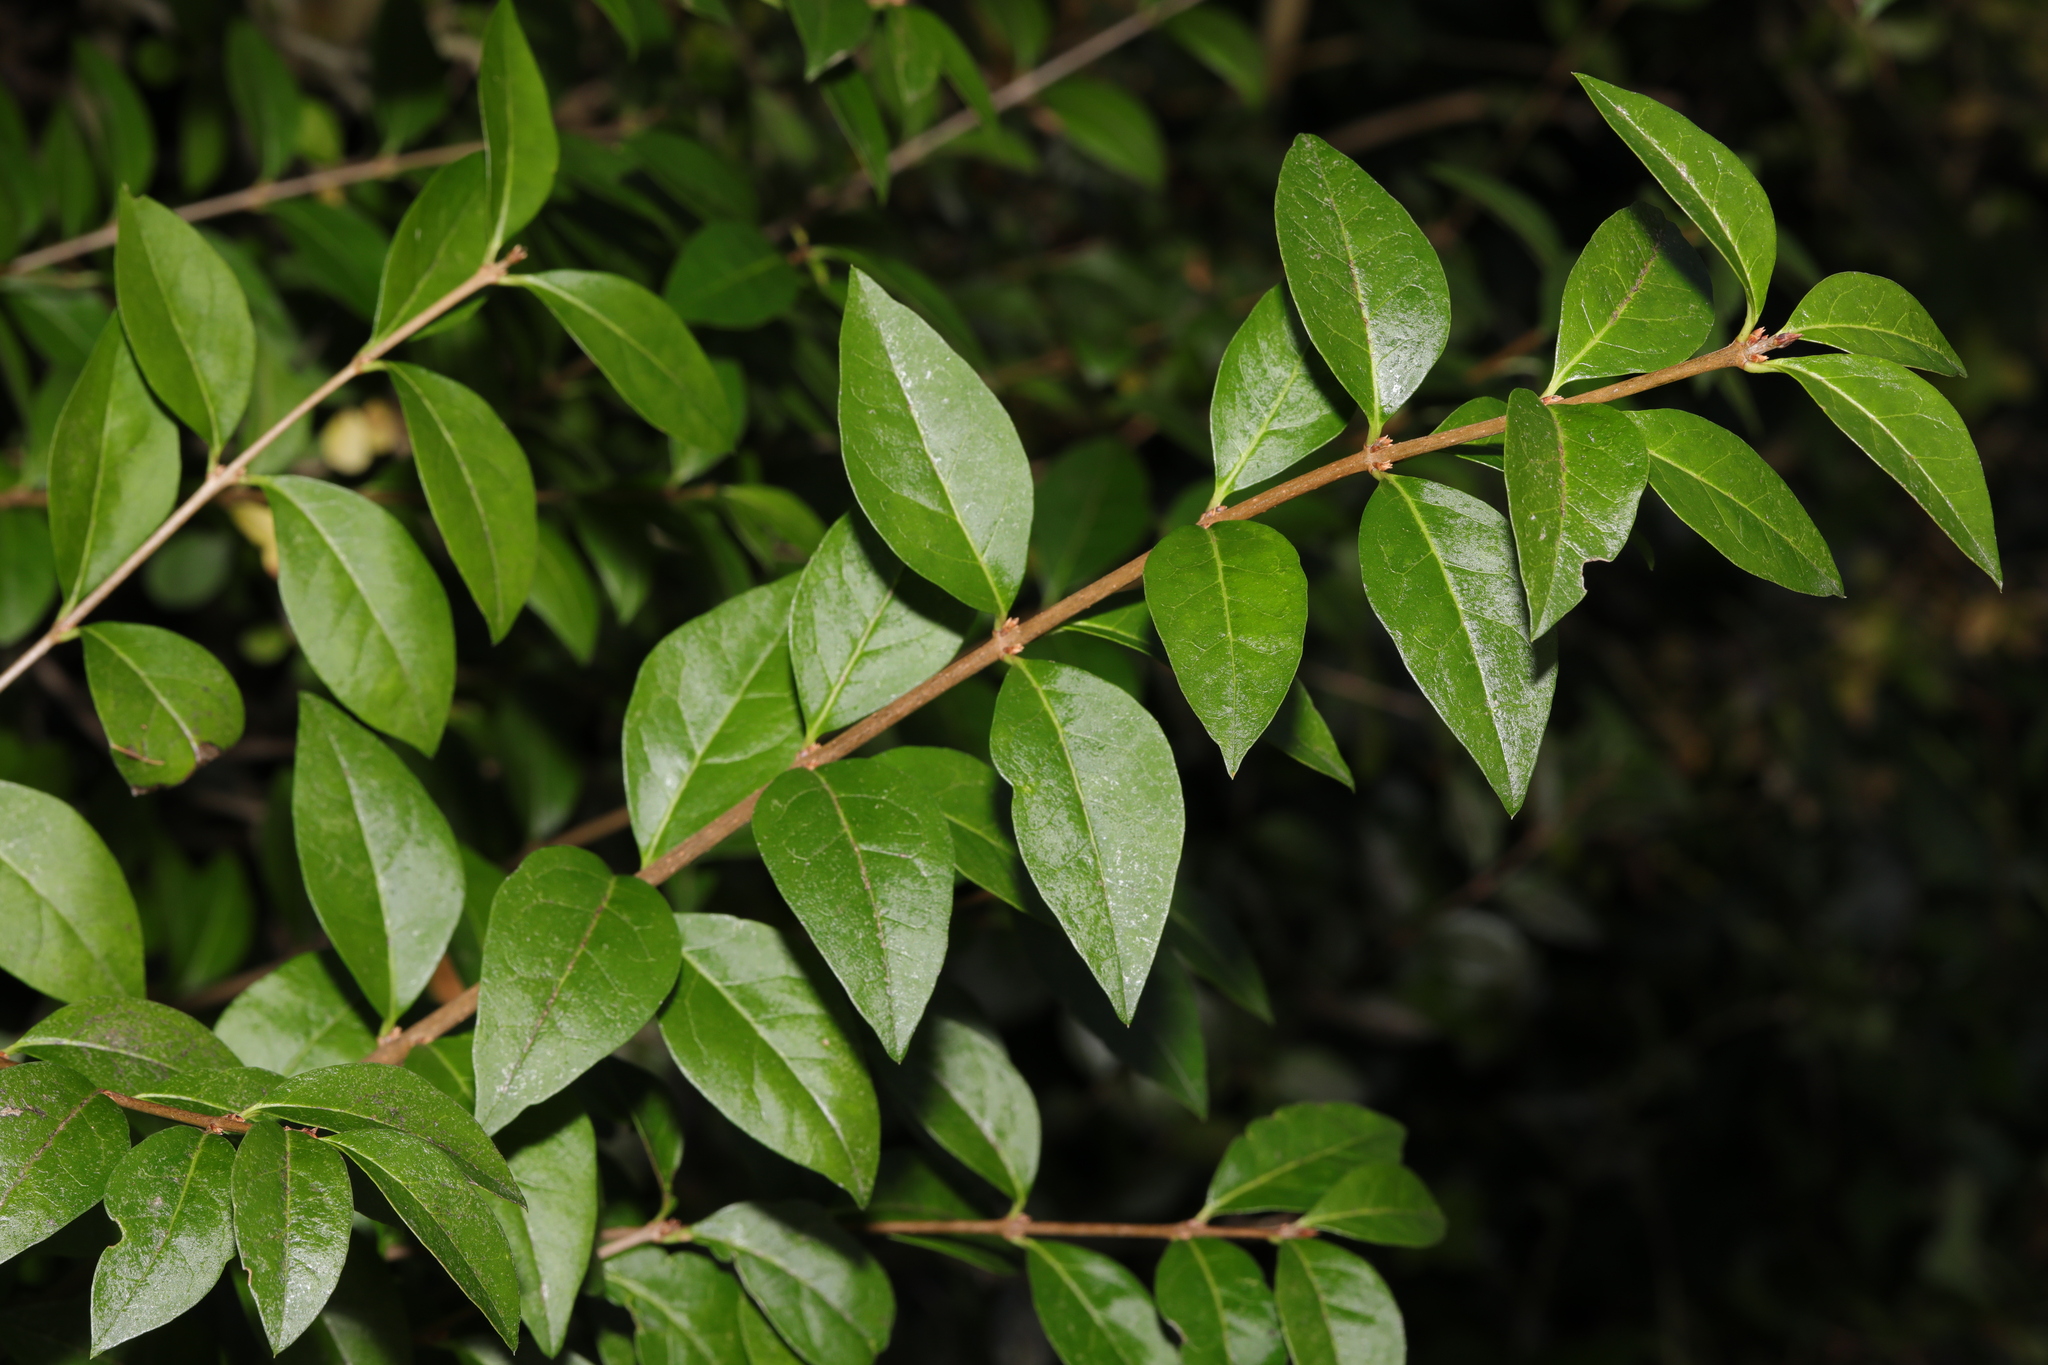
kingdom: Plantae
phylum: Tracheophyta
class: Magnoliopsida
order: Lamiales
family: Oleaceae
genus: Ligustrum
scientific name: Ligustrum ovalifolium
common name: California privet
